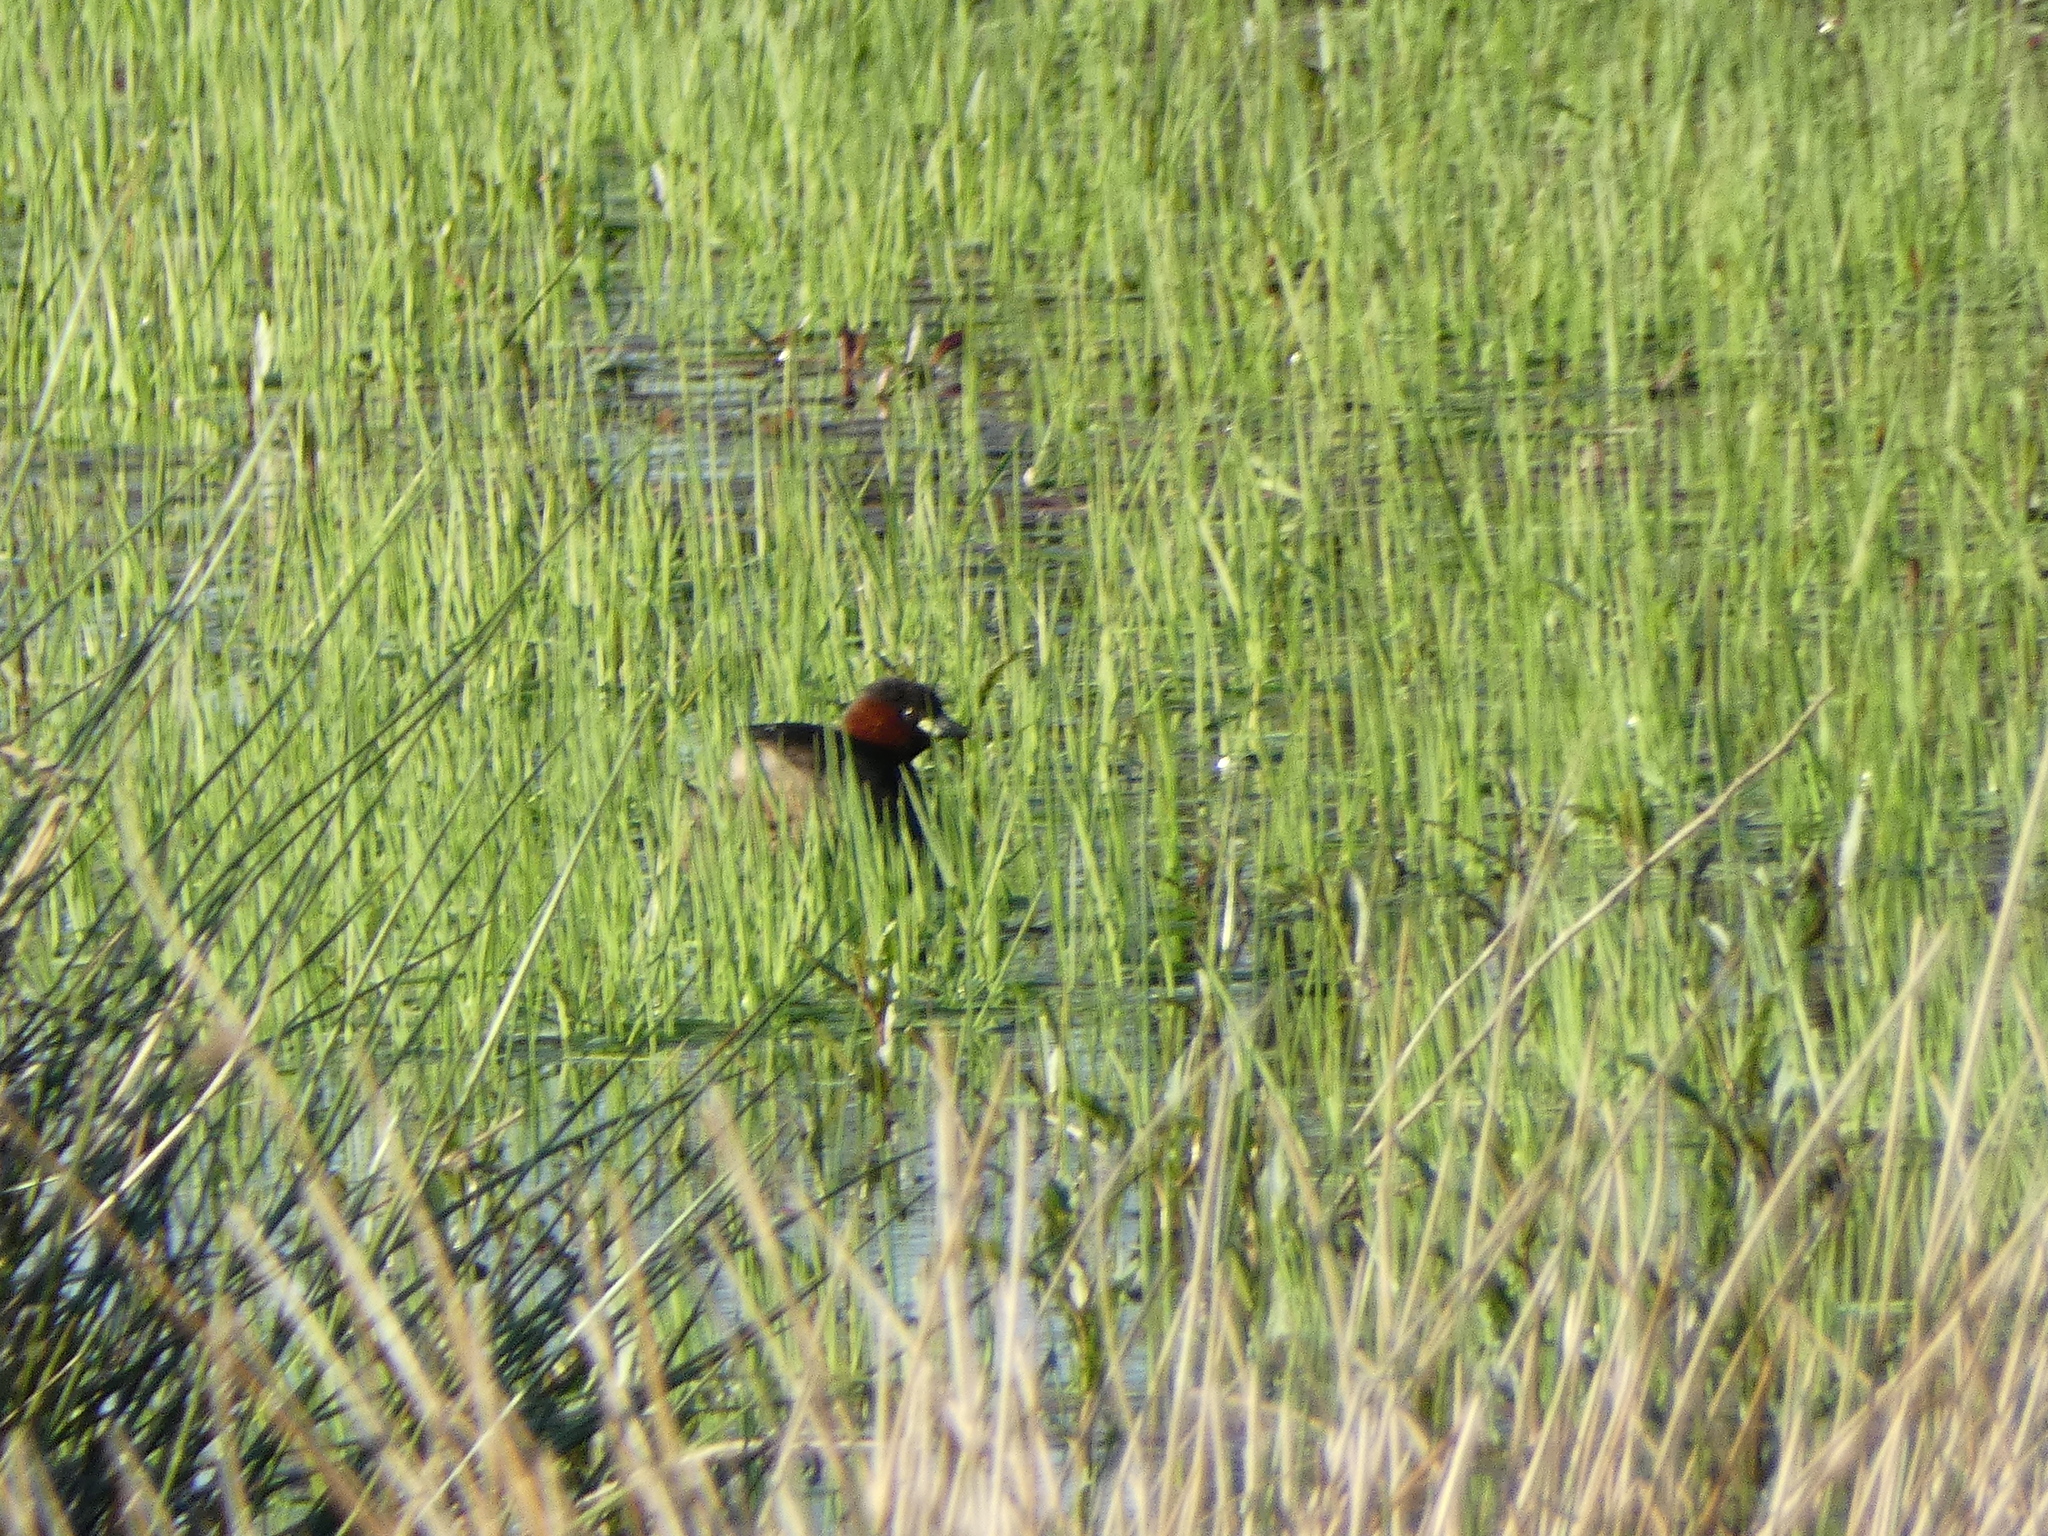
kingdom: Animalia
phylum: Chordata
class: Aves
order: Podicipediformes
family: Podicipedidae
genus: Tachybaptus
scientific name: Tachybaptus ruficollis
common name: Little grebe
